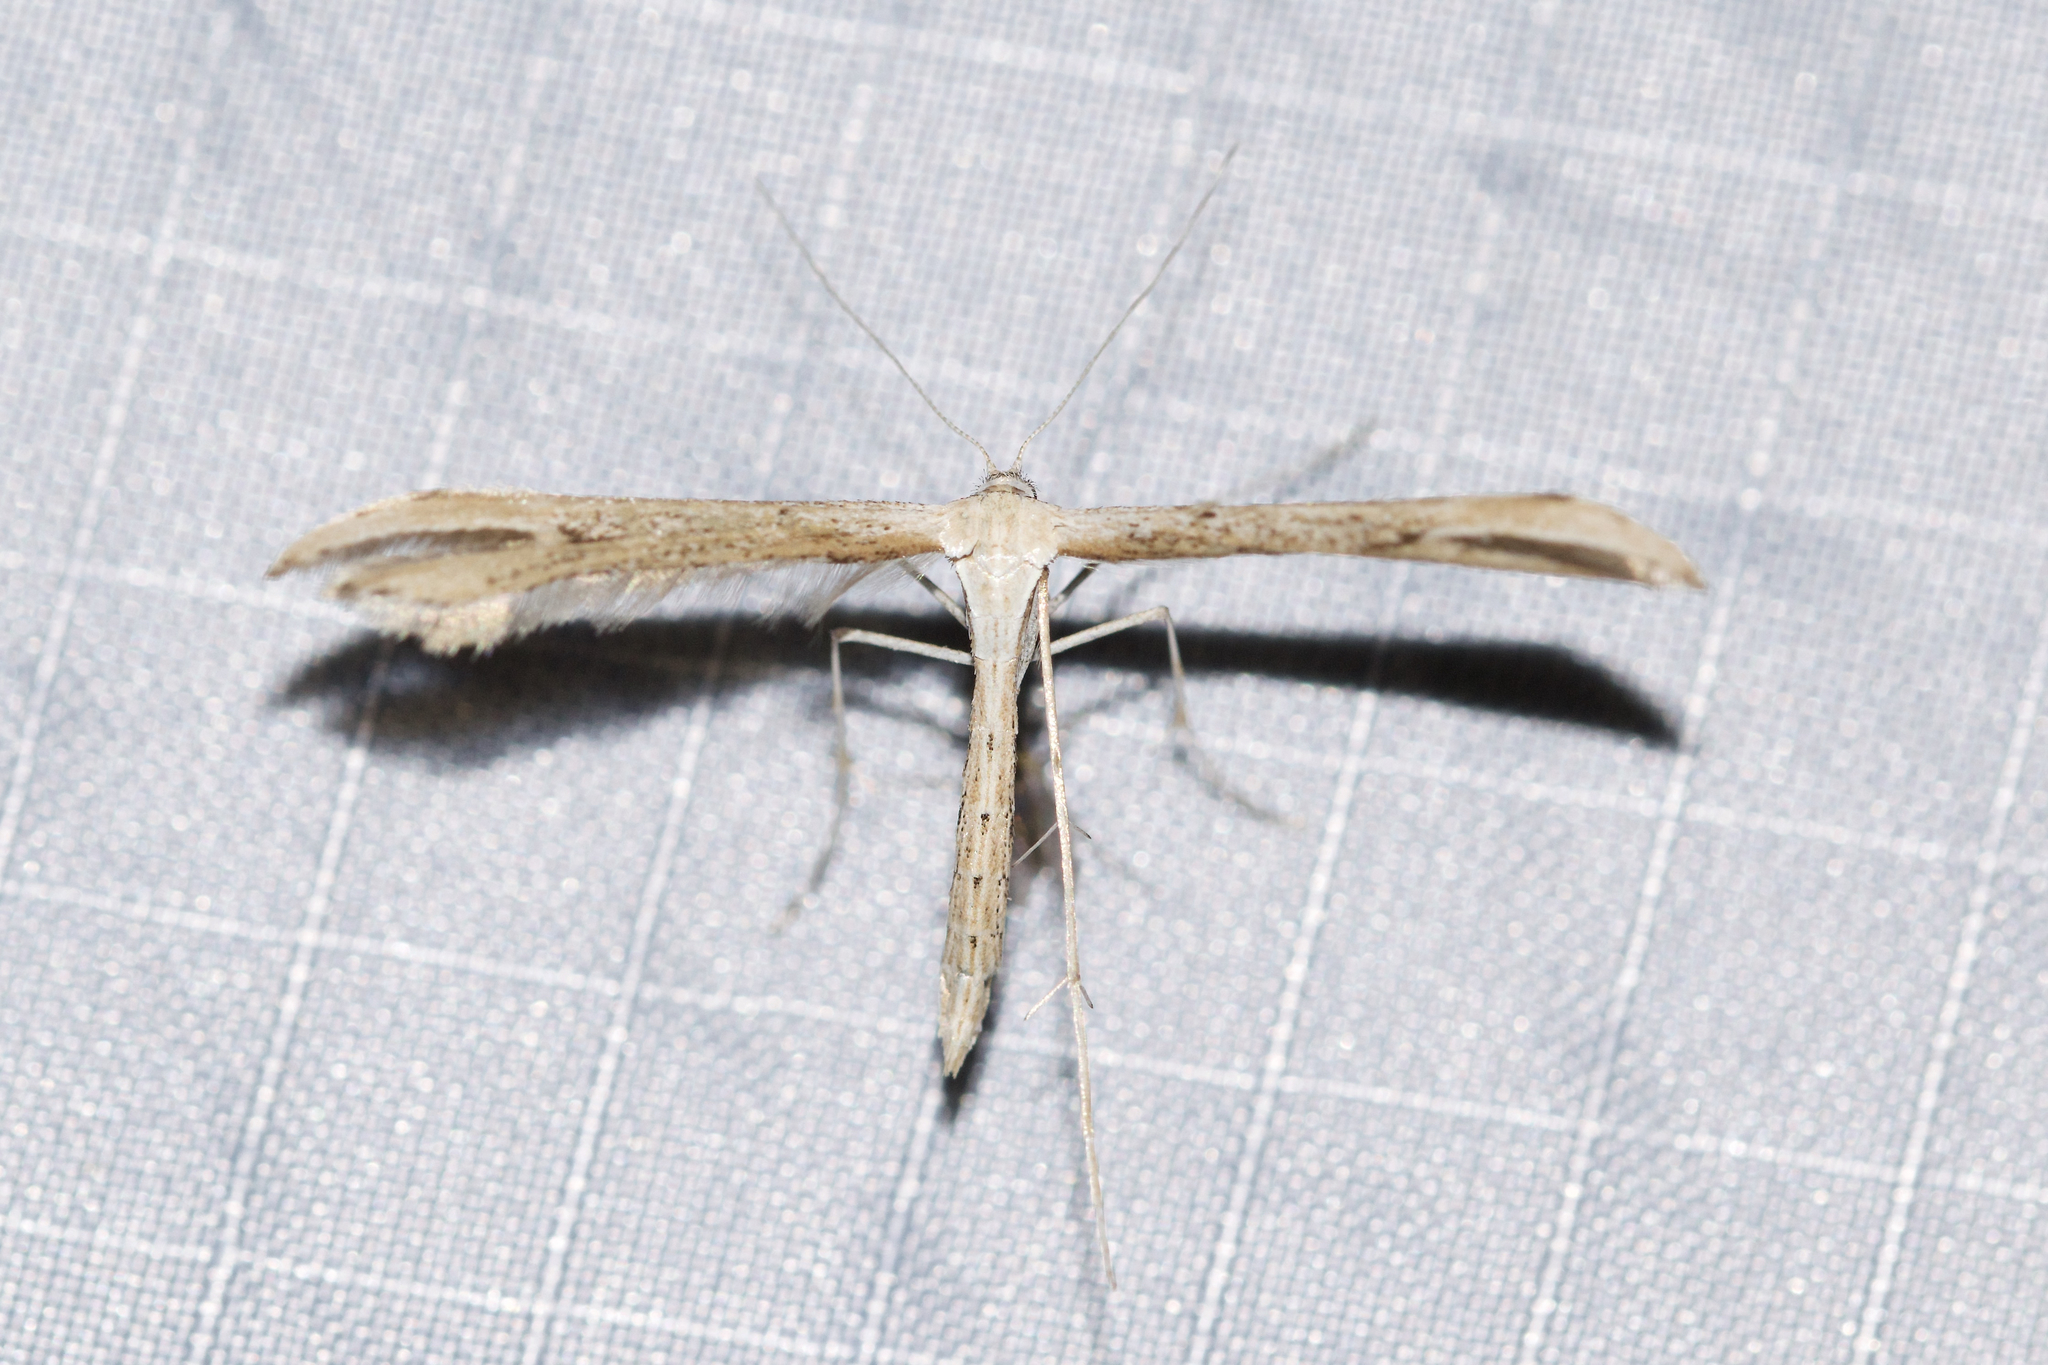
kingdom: Animalia
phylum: Arthropoda
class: Insecta
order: Lepidoptera
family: Pterophoridae
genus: Emmelina
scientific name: Emmelina monodactyla
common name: Common plume
